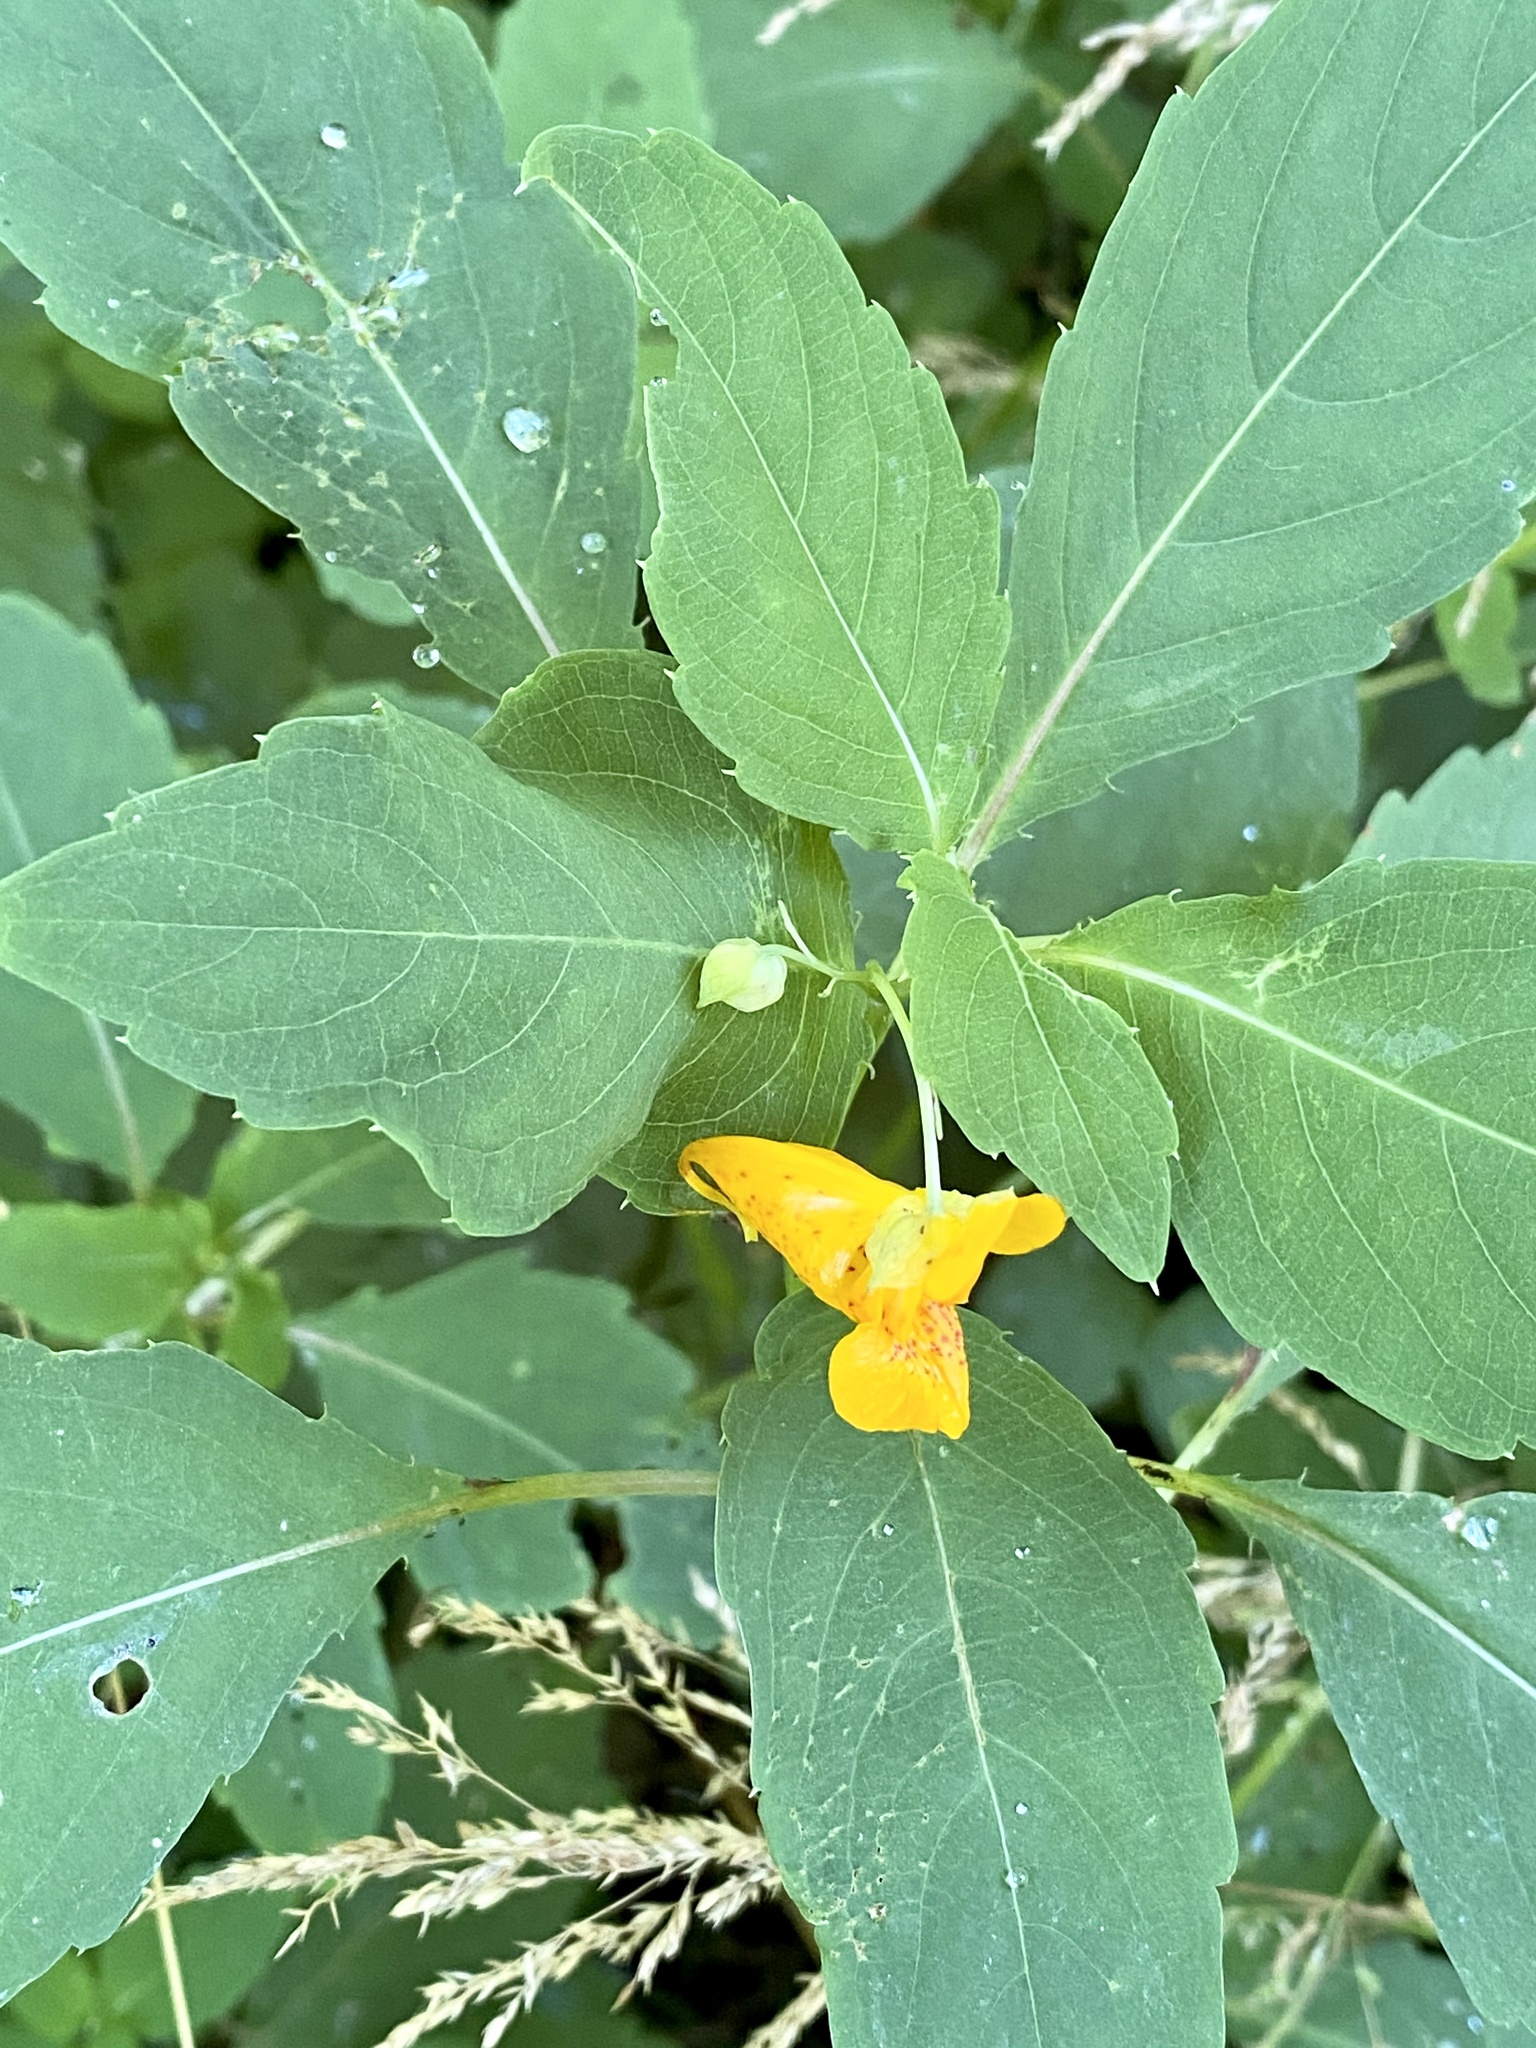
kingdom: Plantae
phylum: Tracheophyta
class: Magnoliopsida
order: Ericales
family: Balsaminaceae
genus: Impatiens
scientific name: Impatiens capensis
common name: Orange balsam
